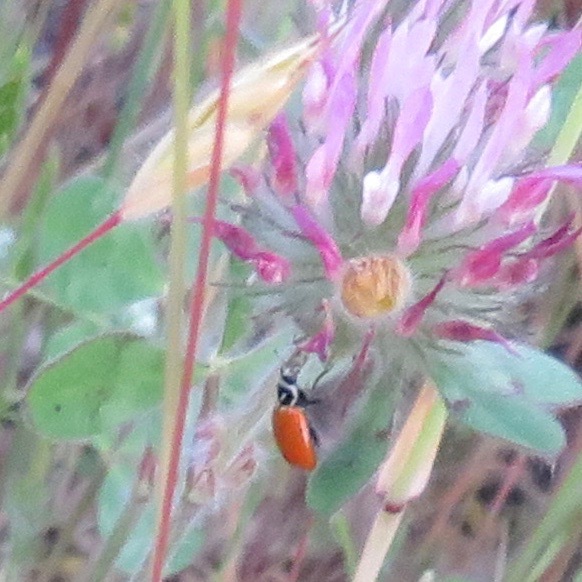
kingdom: Animalia
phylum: Arthropoda
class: Insecta
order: Coleoptera
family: Coccinellidae
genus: Hippodamia
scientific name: Hippodamia convergens
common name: Convergent lady beetle
